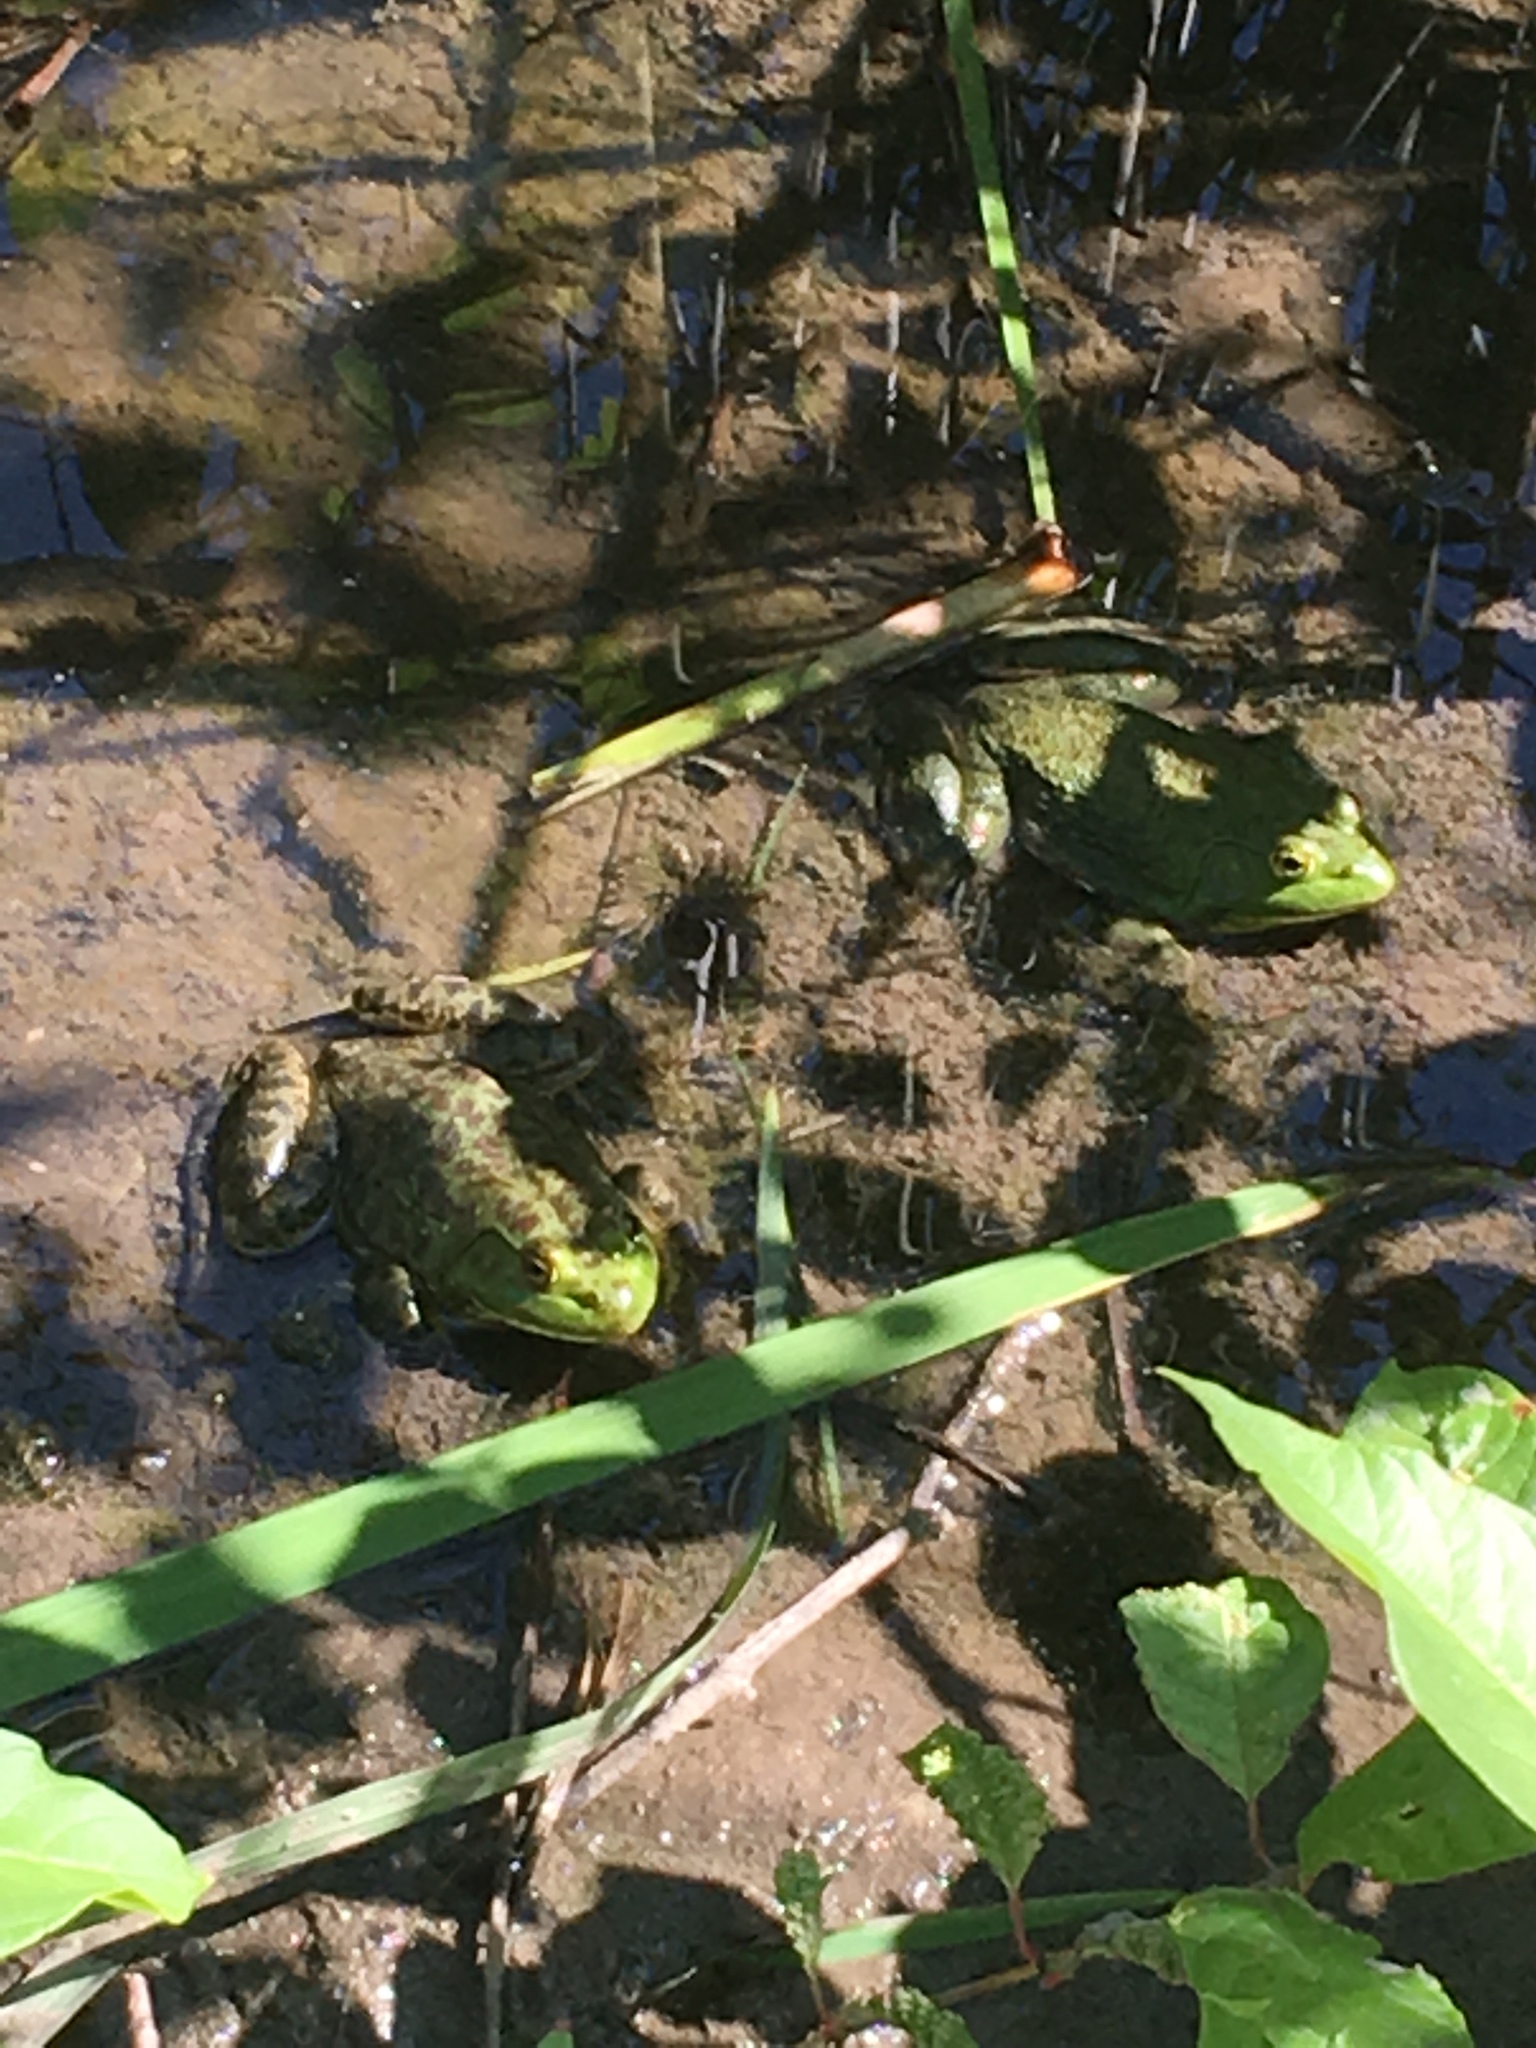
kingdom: Animalia
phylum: Chordata
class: Amphibia
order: Anura
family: Ranidae
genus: Lithobates
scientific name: Lithobates catesbeianus
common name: American bullfrog
